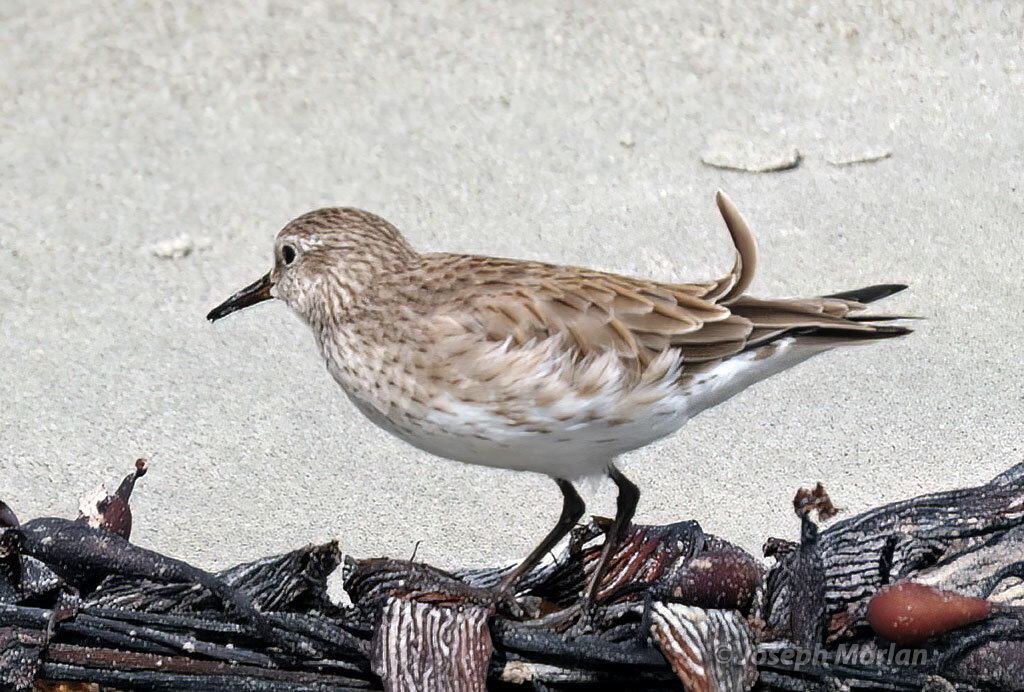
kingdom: Animalia
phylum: Chordata
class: Aves
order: Charadriiformes
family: Scolopacidae
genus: Calidris
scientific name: Calidris fuscicollis
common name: White-rumped sandpiper
